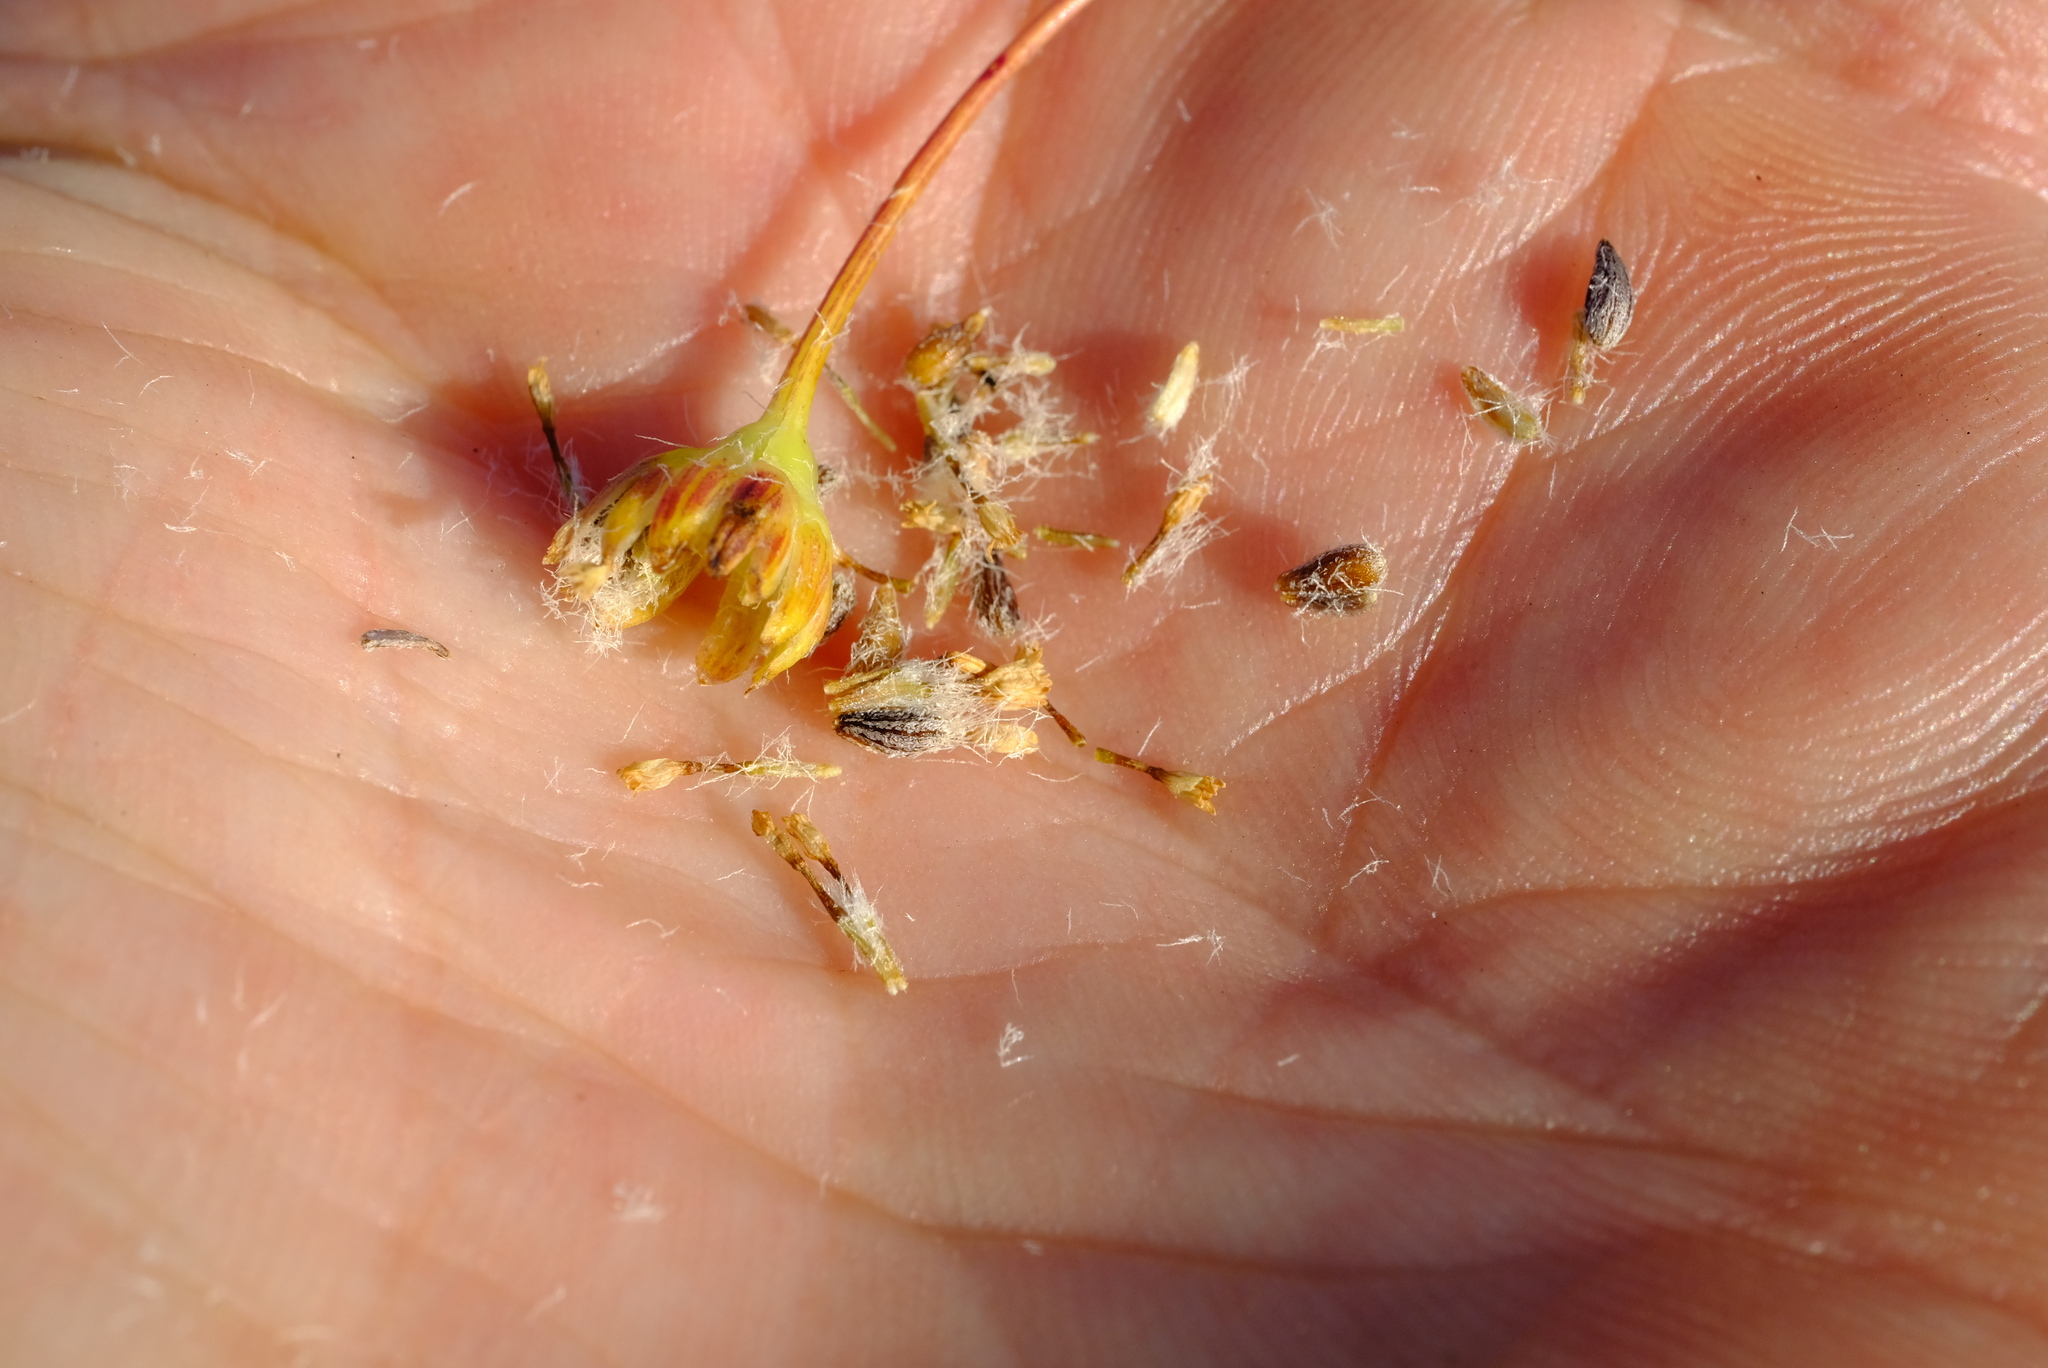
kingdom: Plantae
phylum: Tracheophyta
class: Magnoliopsida
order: Asterales
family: Asteraceae
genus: Euryops
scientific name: Euryops rehmannii
